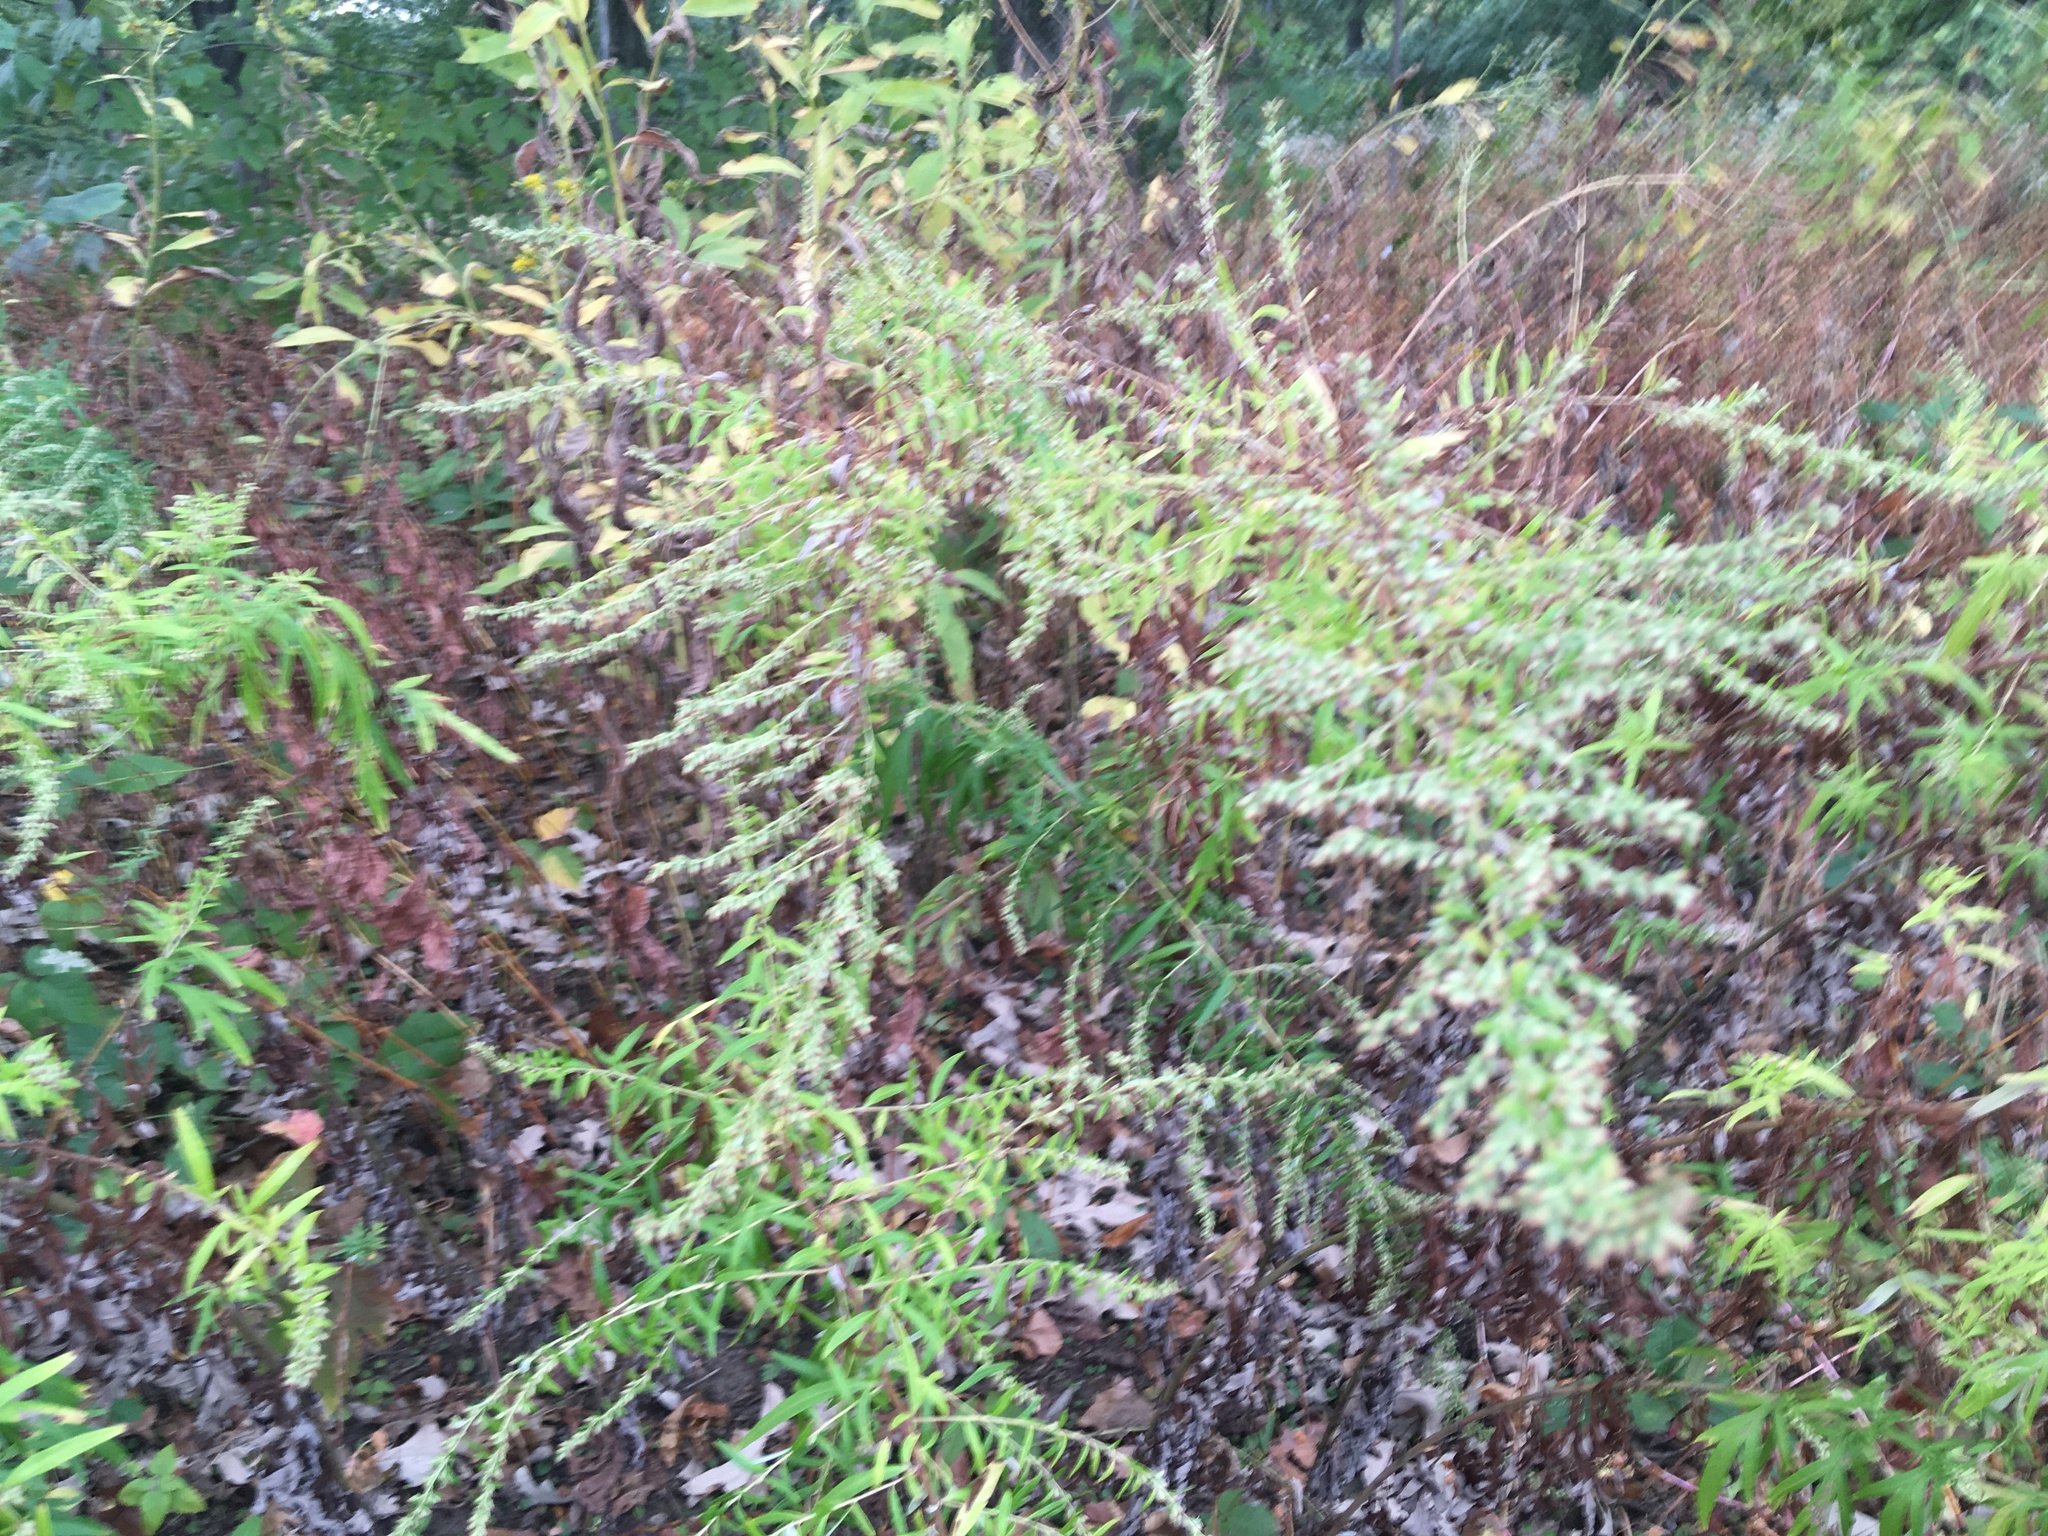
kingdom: Plantae
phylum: Tracheophyta
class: Magnoliopsida
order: Asterales
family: Asteraceae
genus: Artemisia
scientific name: Artemisia vulgaris
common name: Mugwort
